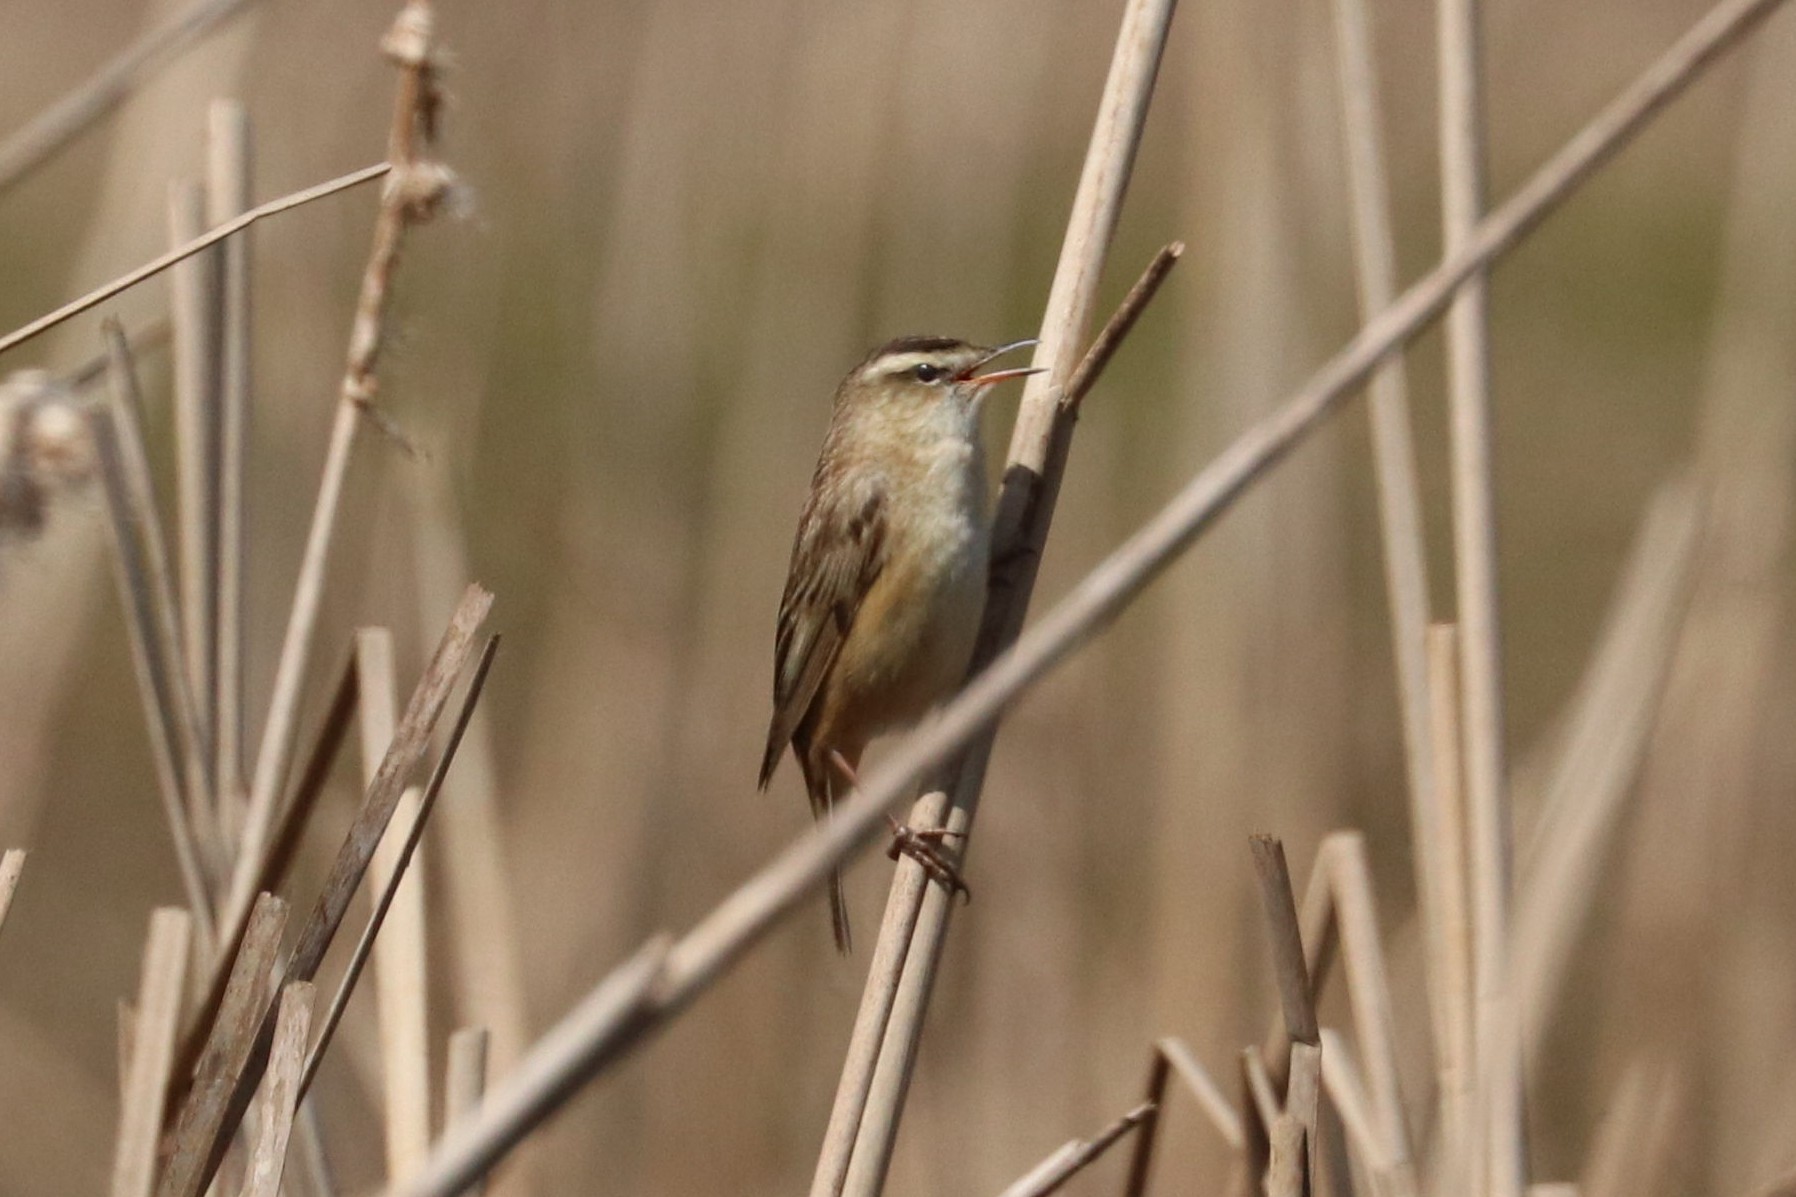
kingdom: Animalia
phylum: Chordata
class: Aves
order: Passeriformes
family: Acrocephalidae
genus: Acrocephalus
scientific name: Acrocephalus schoenobaenus
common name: Sedge warbler
